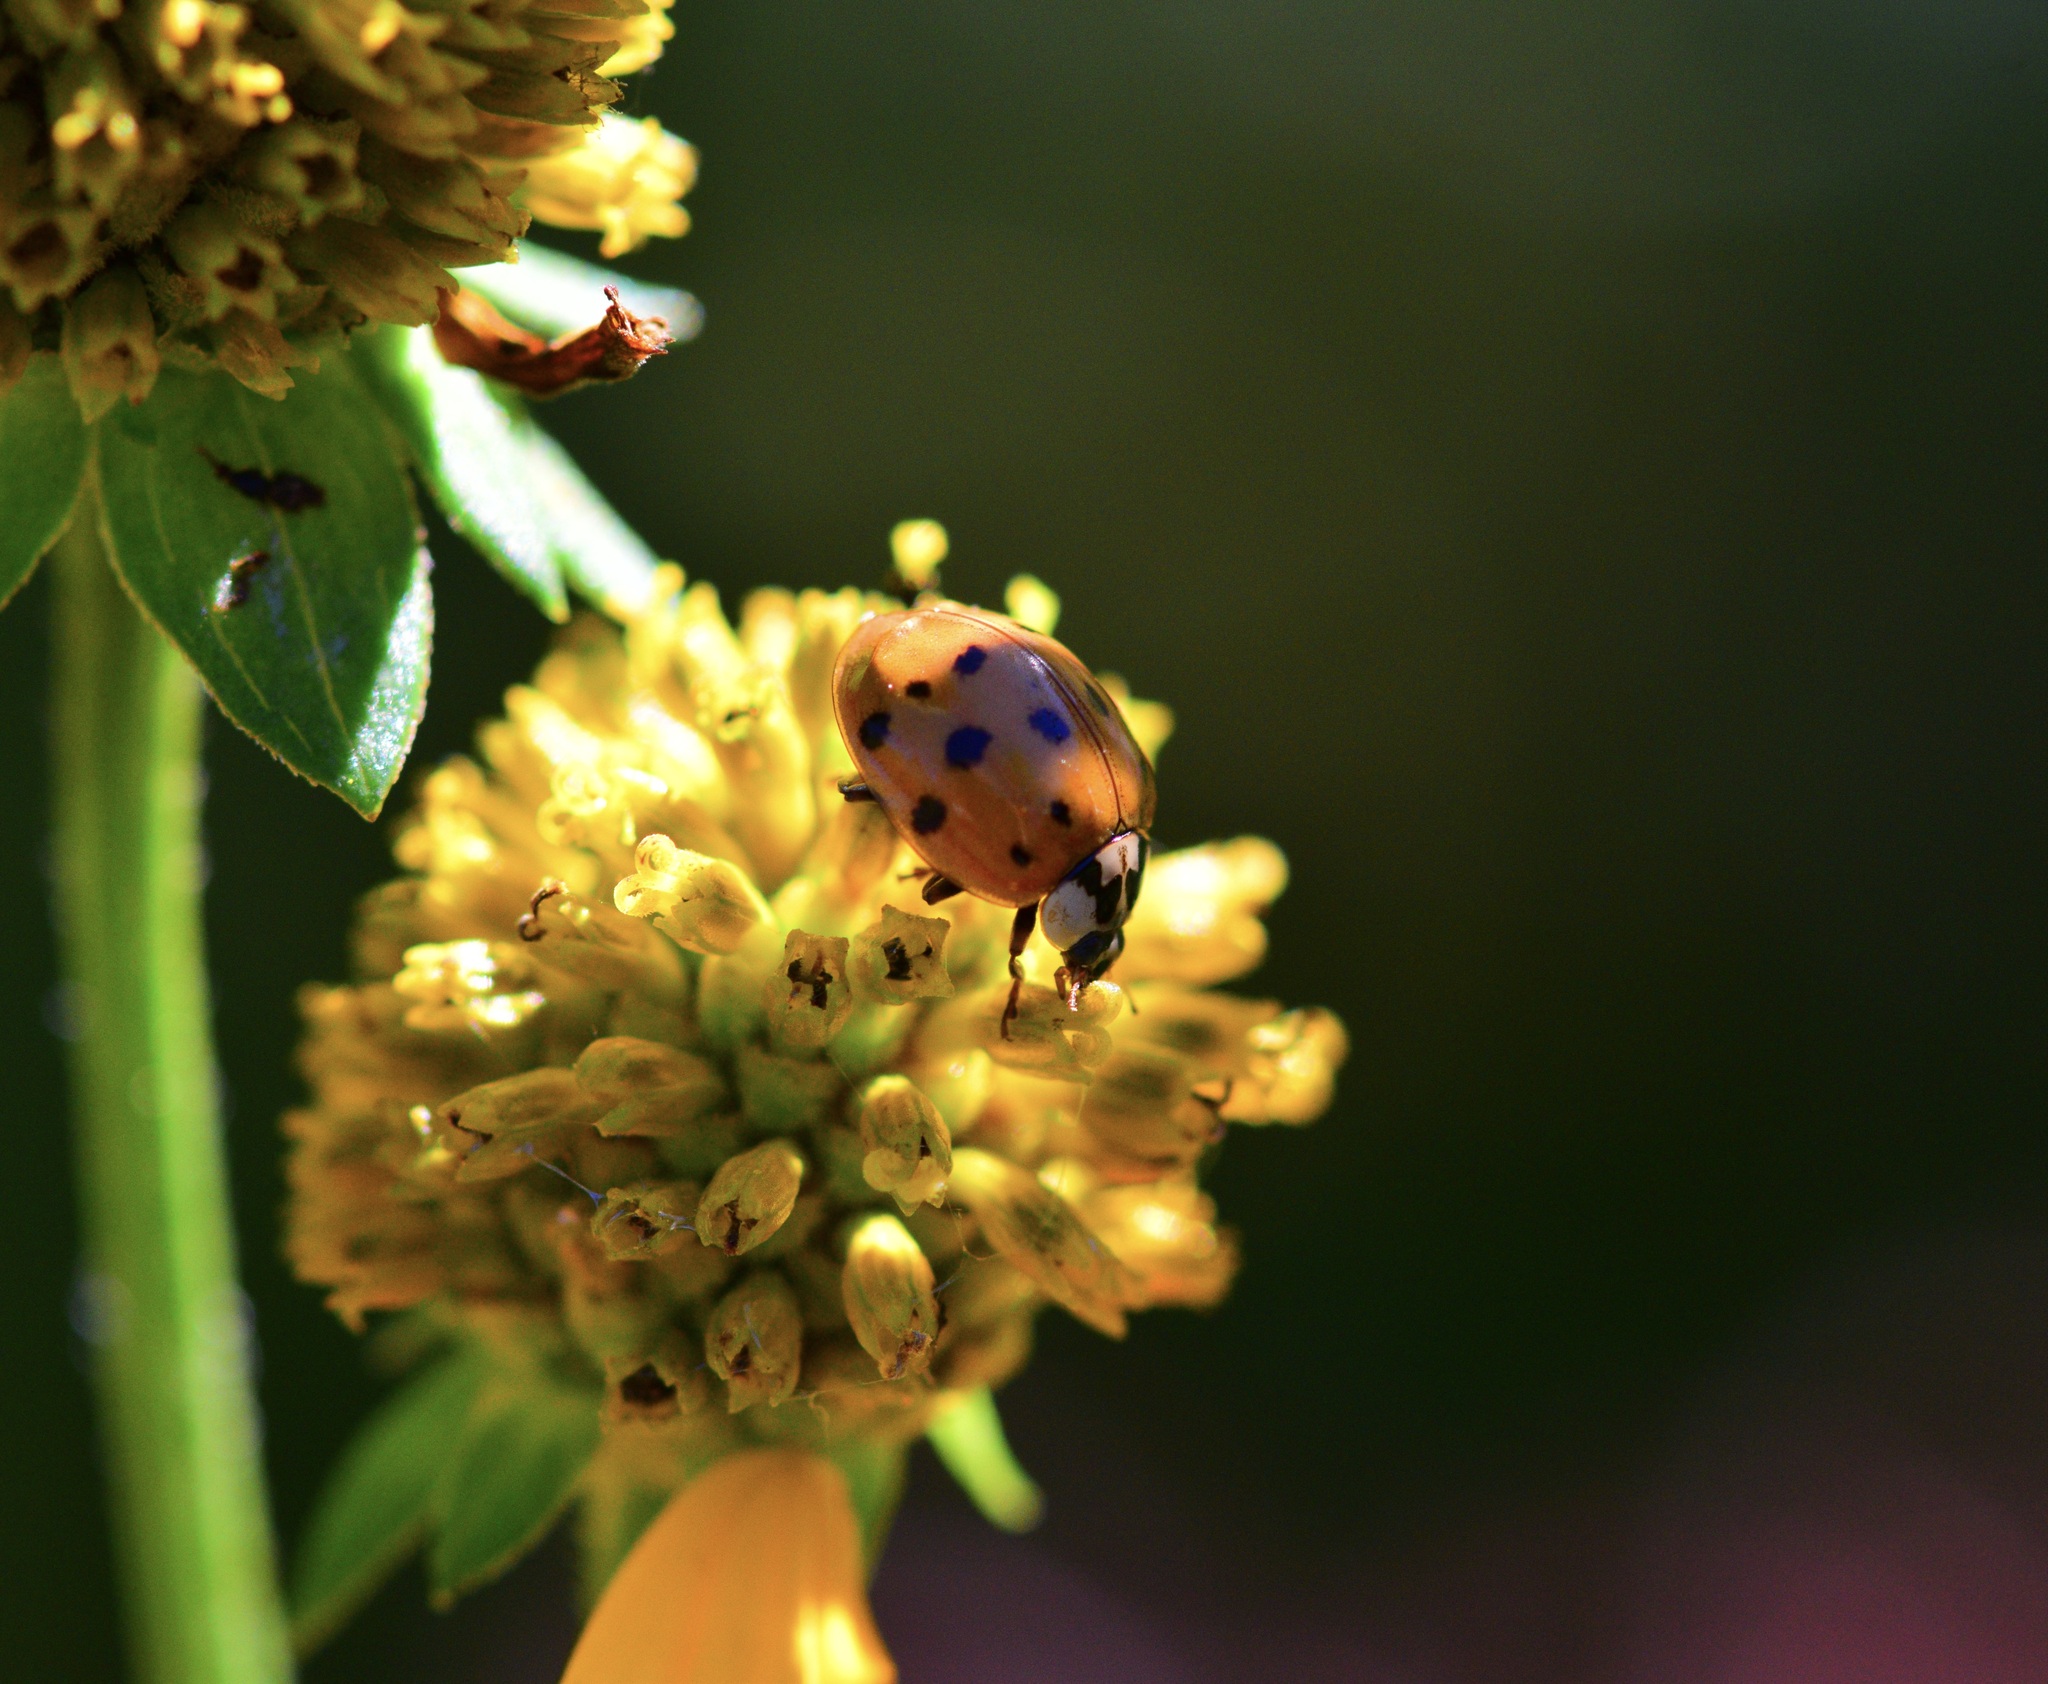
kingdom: Animalia
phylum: Arthropoda
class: Insecta
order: Coleoptera
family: Coccinellidae
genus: Harmonia
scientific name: Harmonia axyridis
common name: Harlequin ladybird
